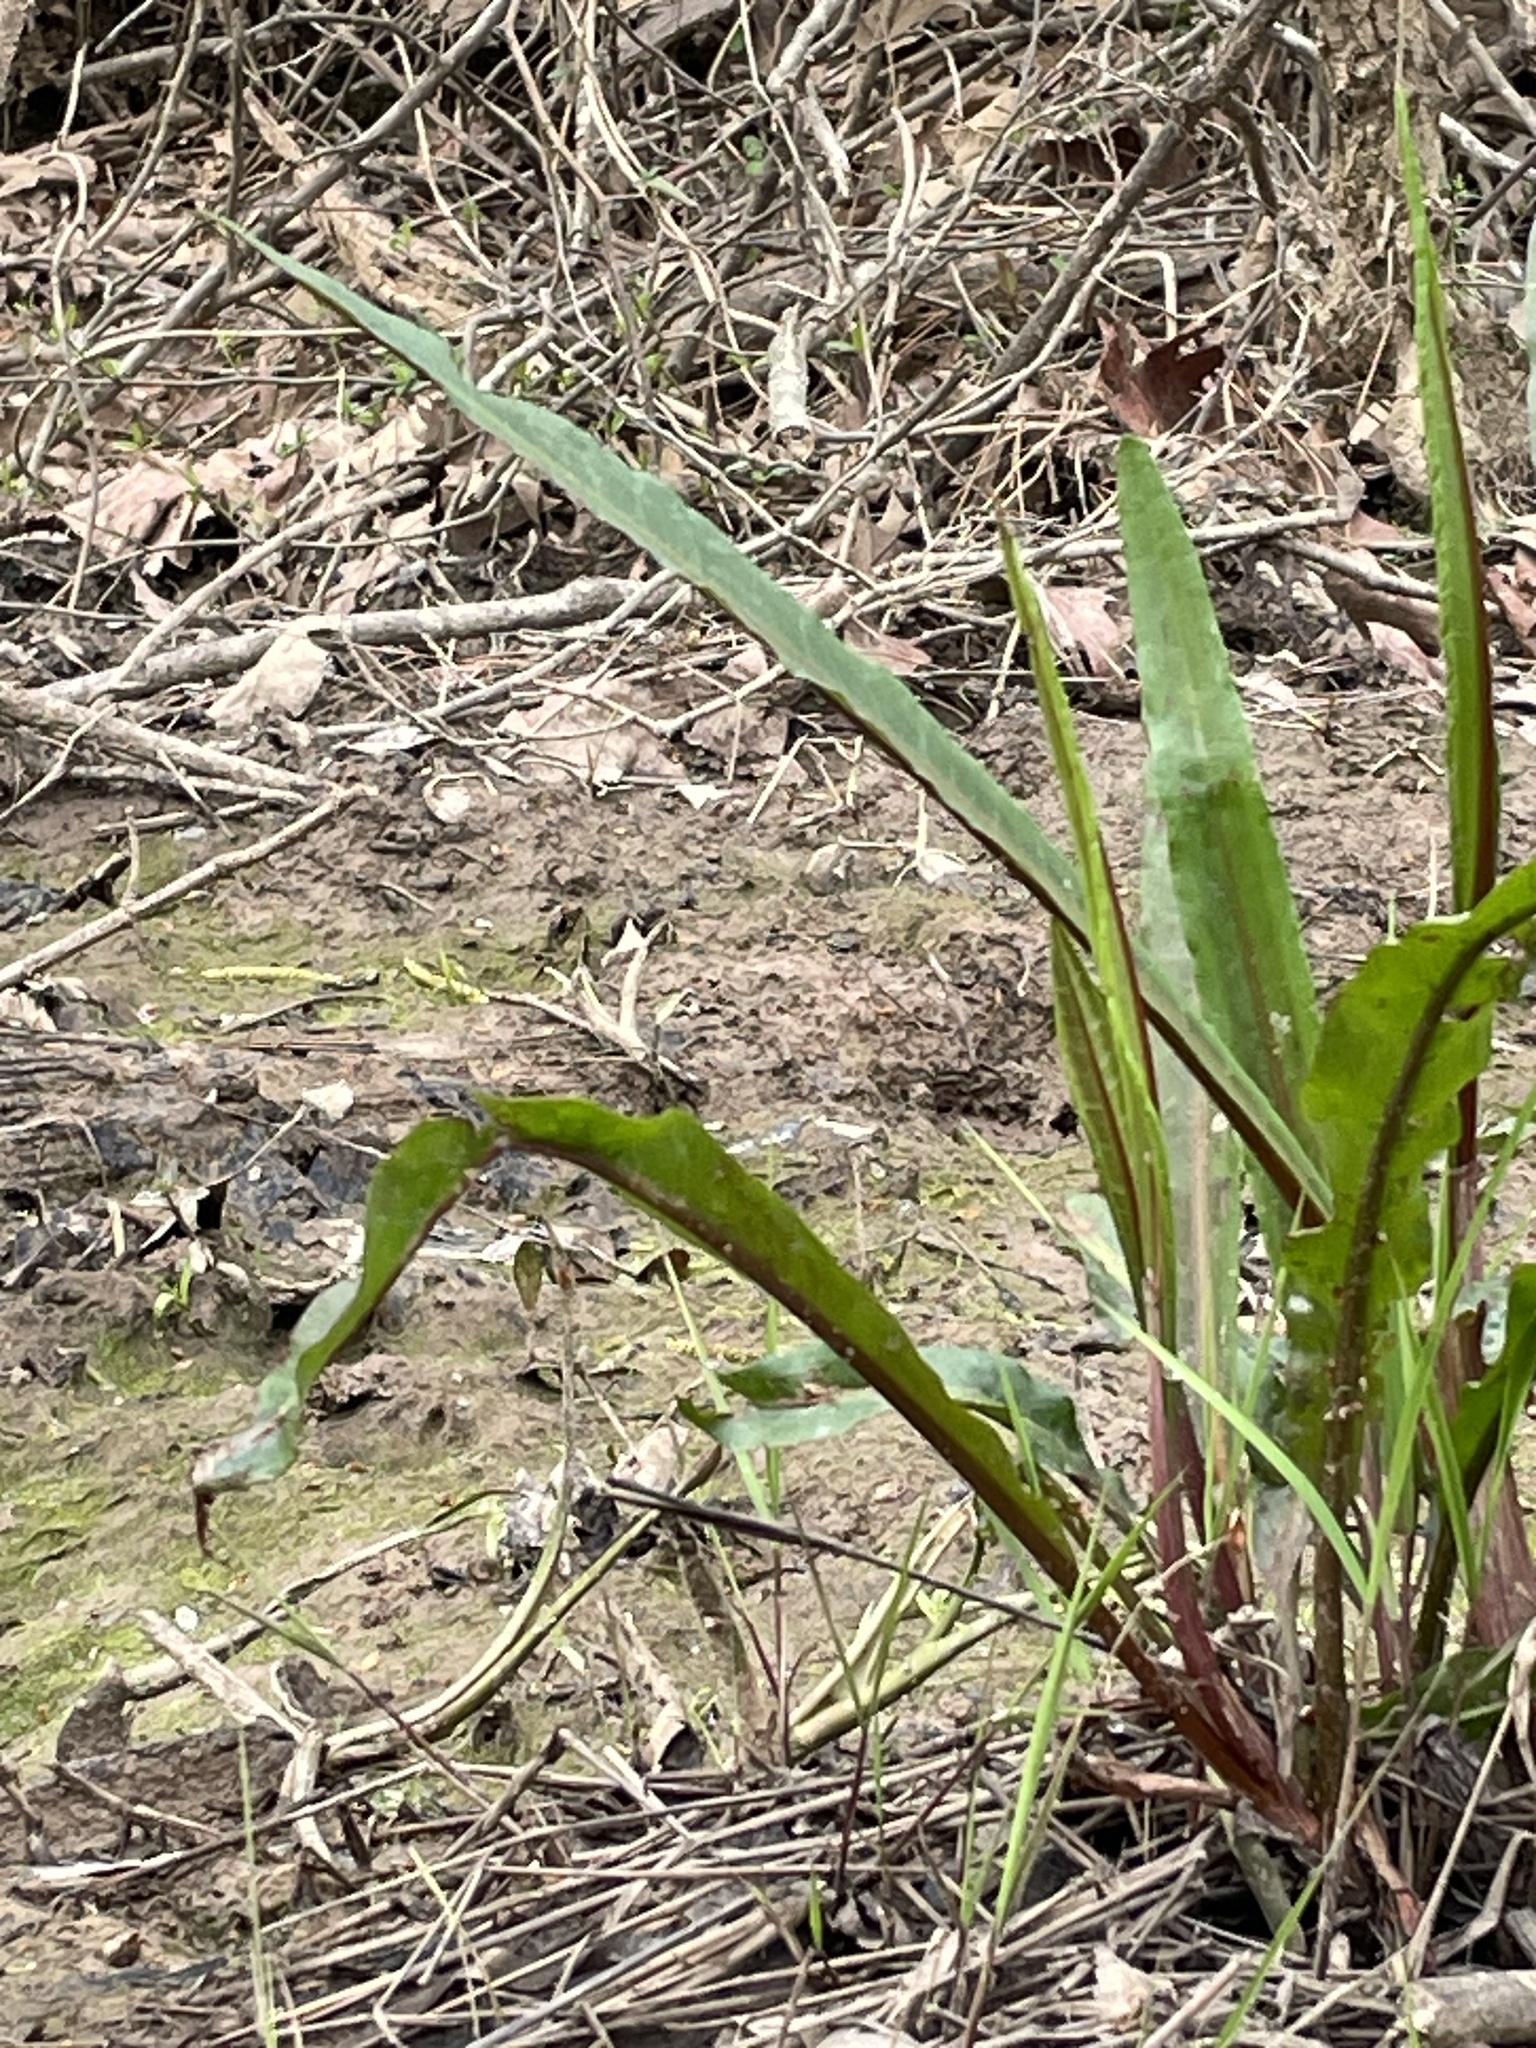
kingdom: Plantae
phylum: Tracheophyta
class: Magnoliopsida
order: Caryophyllales
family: Polygonaceae
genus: Rumex
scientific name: Rumex verticillatus
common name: Swamp dock
